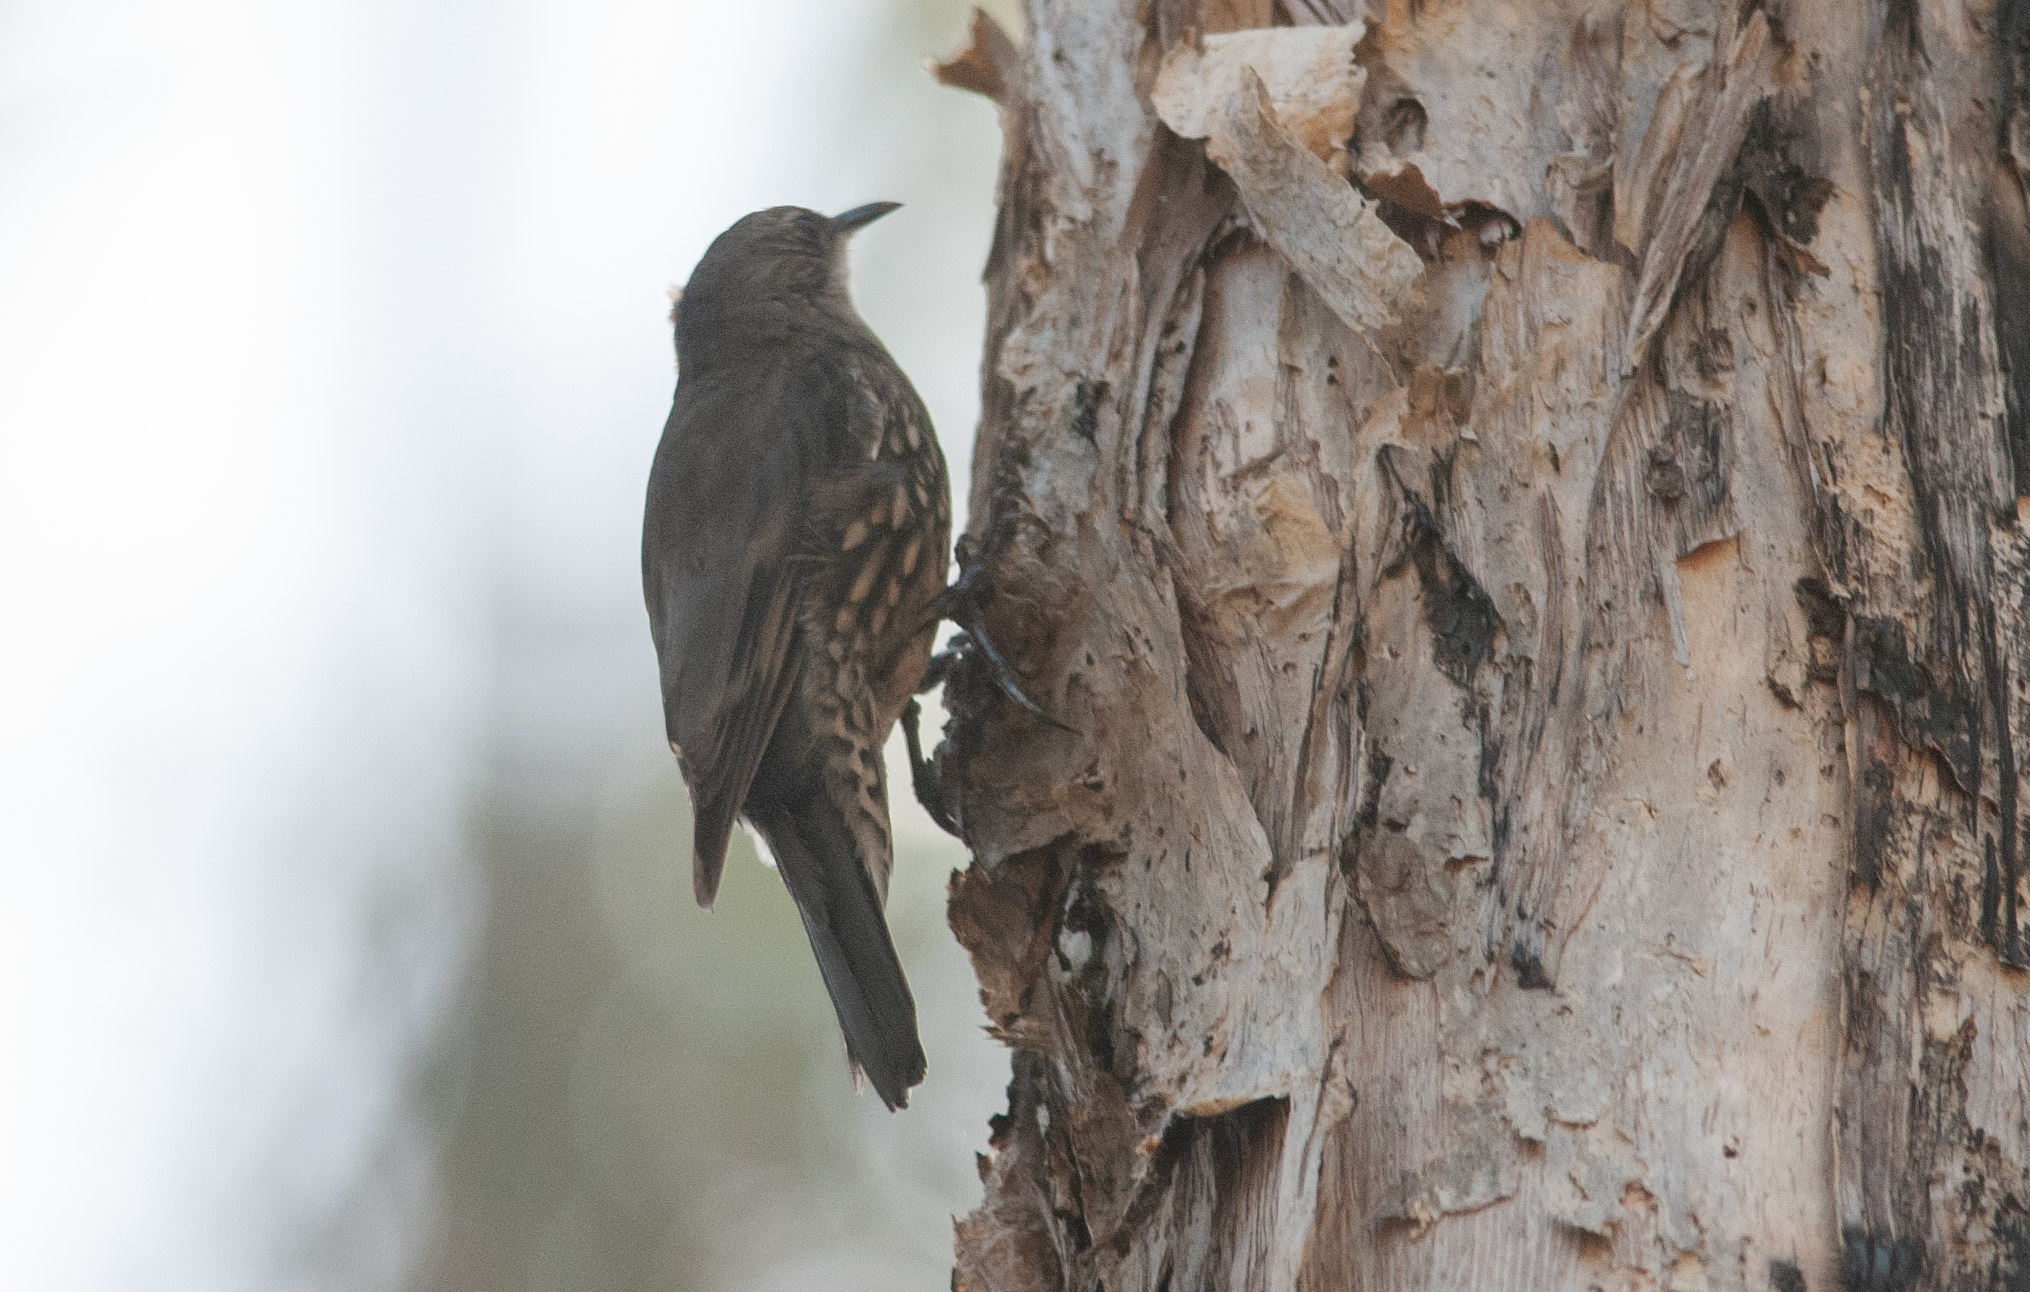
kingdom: Animalia
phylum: Chordata
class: Aves
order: Passeriformes
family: Climacteridae
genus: Cormobates
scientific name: Cormobates leucophaea
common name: White-throated treecreeper
